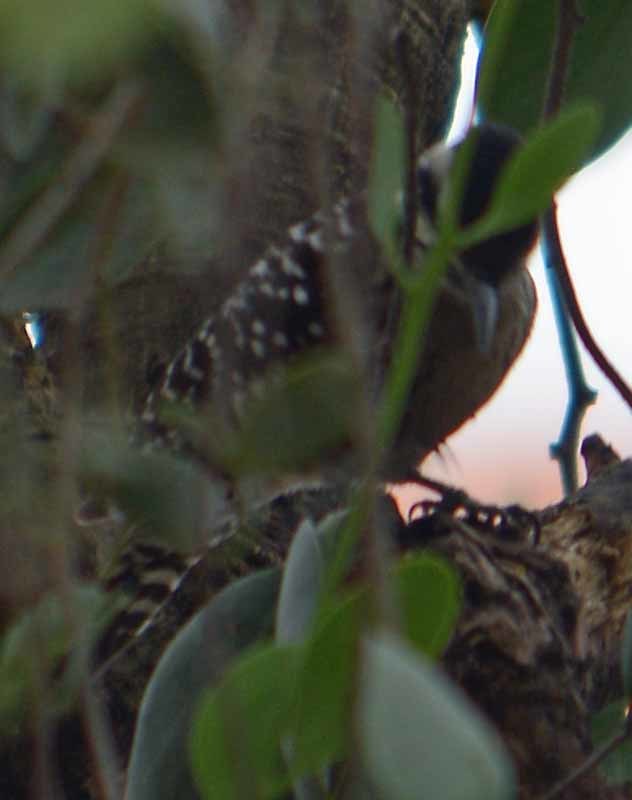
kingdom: Animalia
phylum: Chordata
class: Aves
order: Piciformes
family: Picidae
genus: Dryobates
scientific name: Dryobates scalaris
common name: Ladder-backed woodpecker
